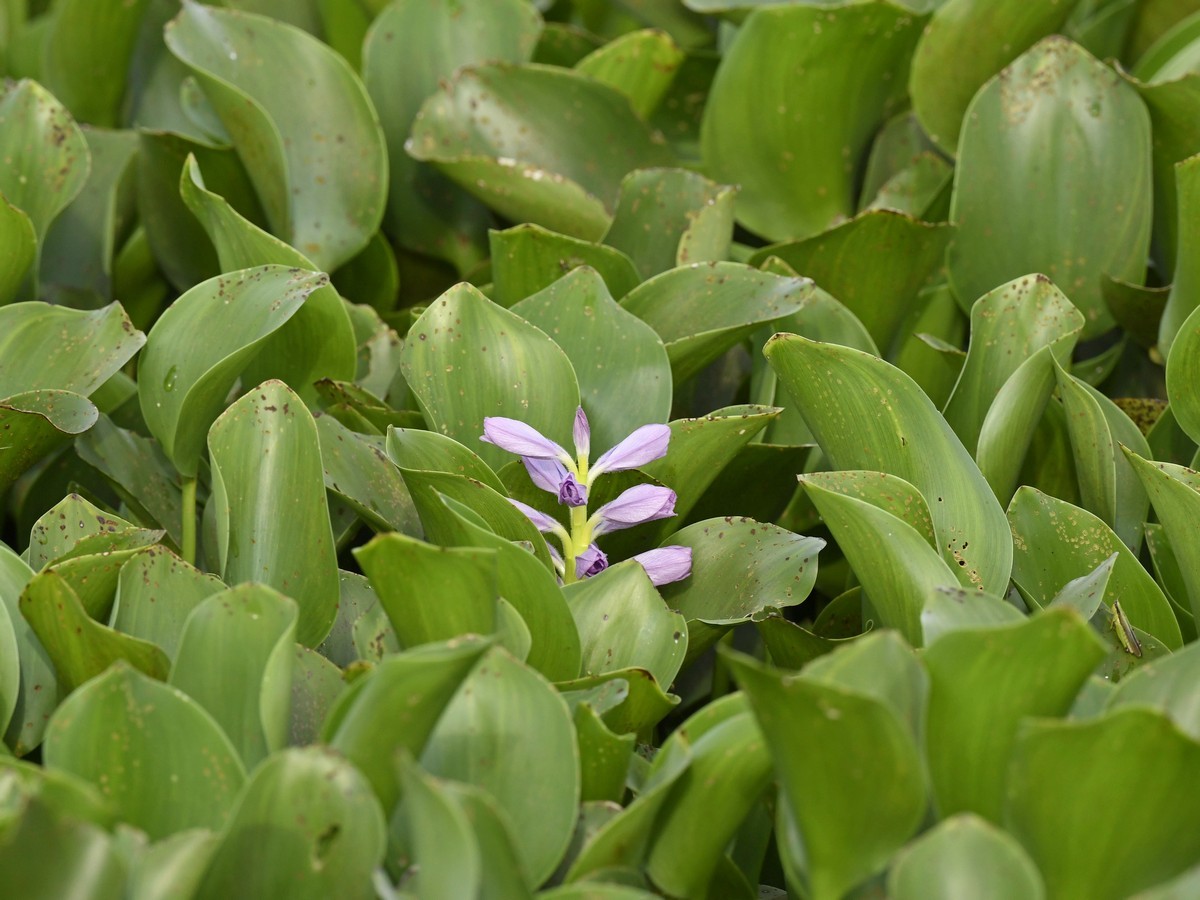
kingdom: Plantae
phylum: Tracheophyta
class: Liliopsida
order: Commelinales
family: Pontederiaceae
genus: Pontederia
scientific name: Pontederia crassipes
